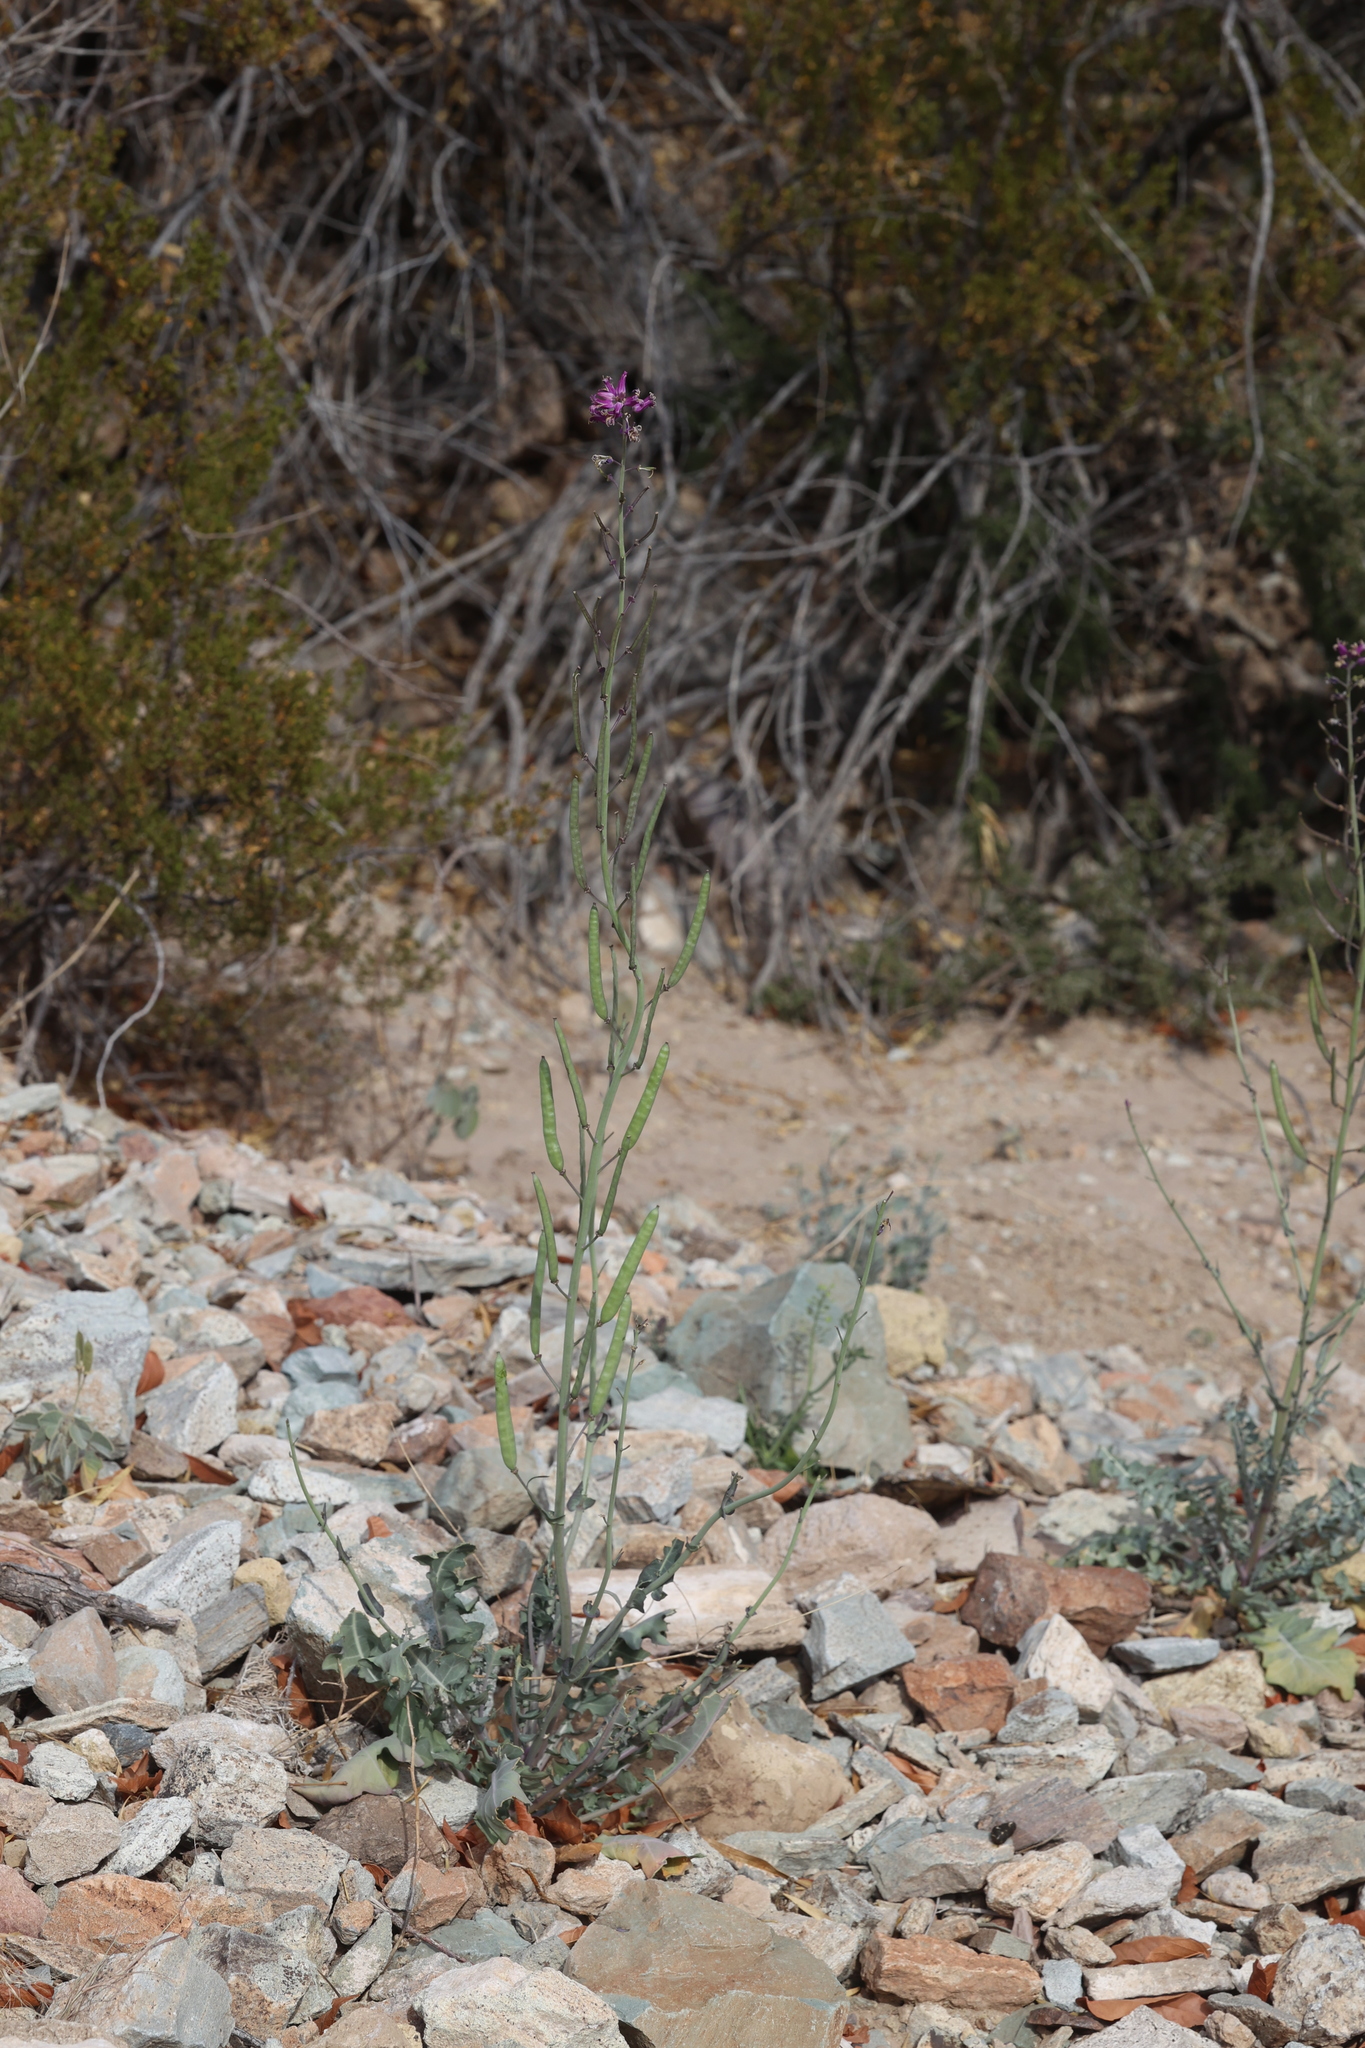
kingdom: Plantae
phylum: Tracheophyta
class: Magnoliopsida
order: Brassicales
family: Brassicaceae
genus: Streptanthus
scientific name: Streptanthus carinatus
